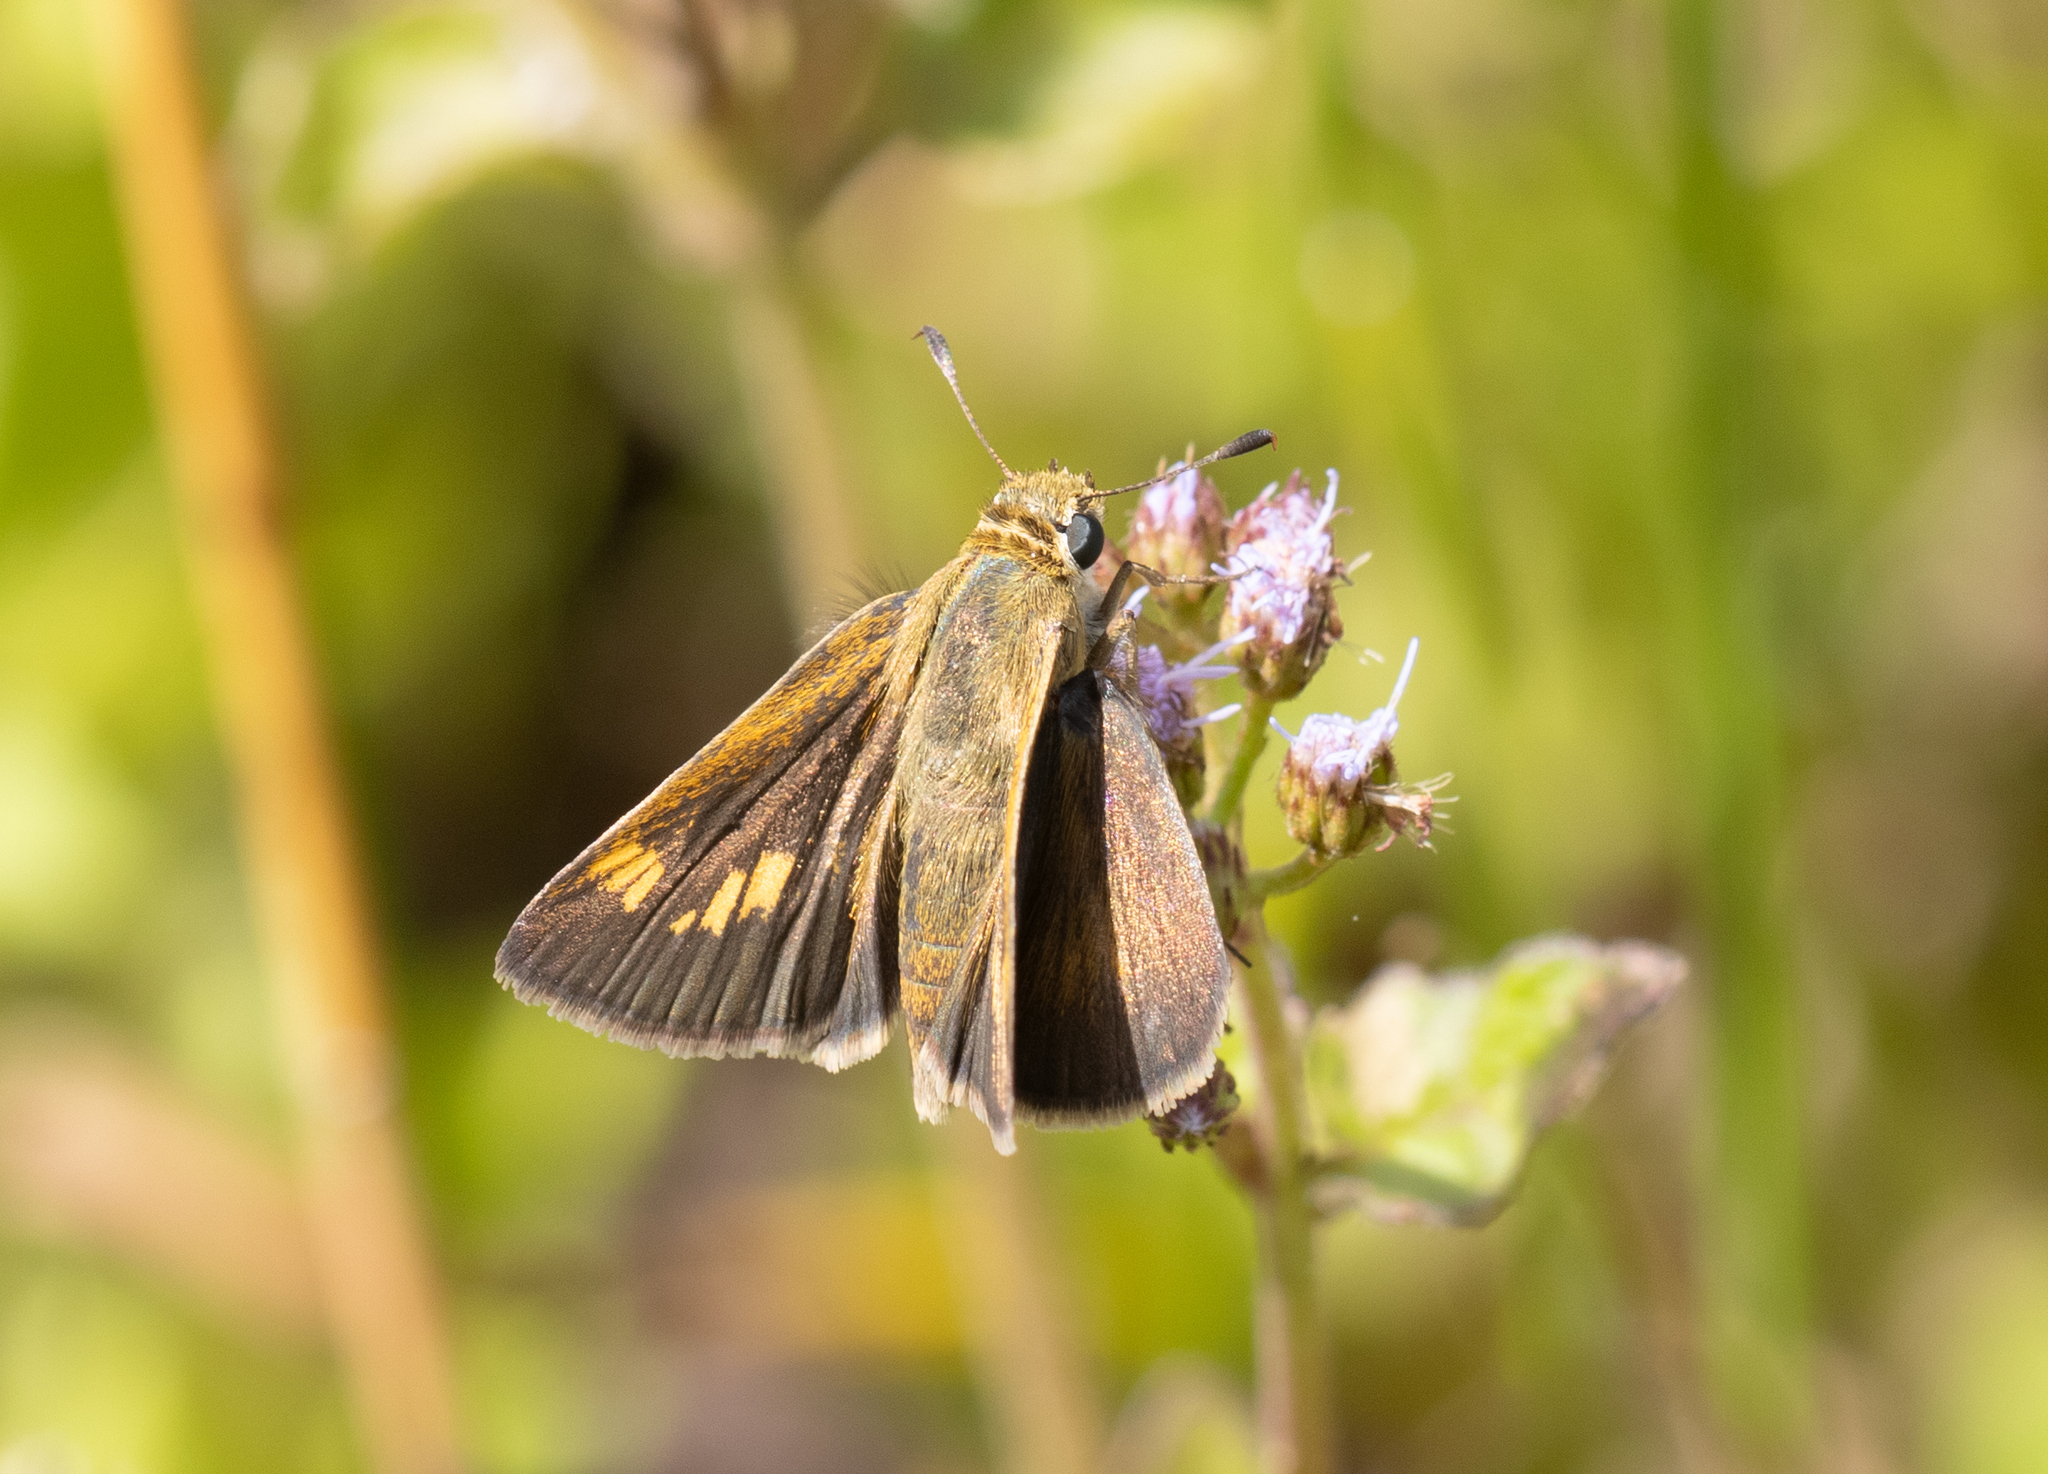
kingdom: Animalia
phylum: Arthropoda
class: Insecta
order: Lepidoptera
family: Hesperiidae
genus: Polites
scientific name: Polites themistocles
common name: Tawny-edged skipper
